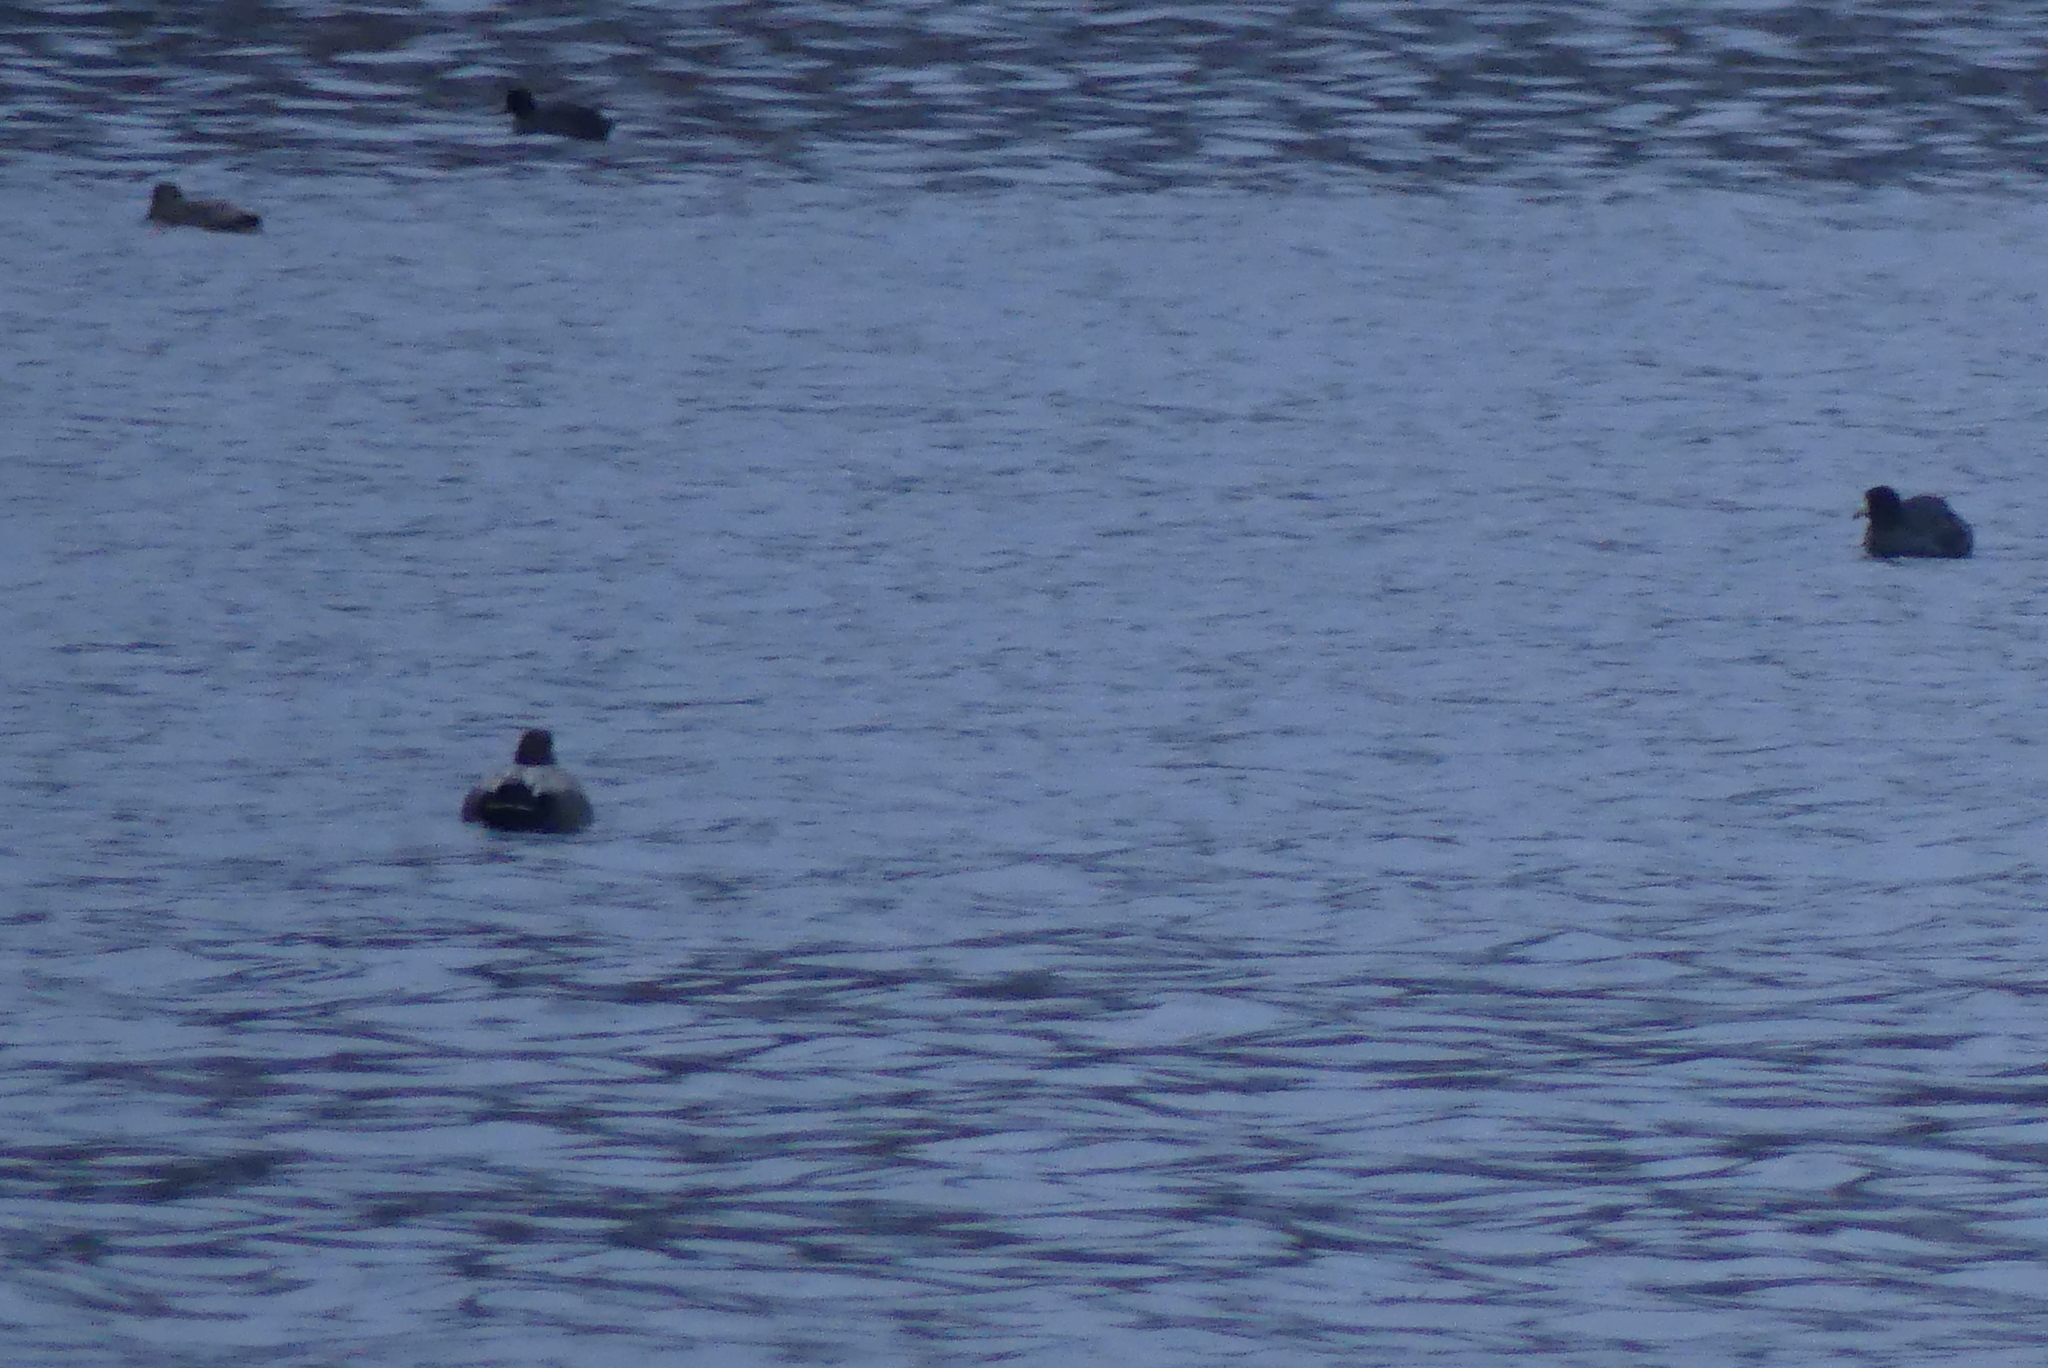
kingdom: Animalia
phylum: Chordata
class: Aves
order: Gruiformes
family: Rallidae
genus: Fulica
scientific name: Fulica americana
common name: American coot
